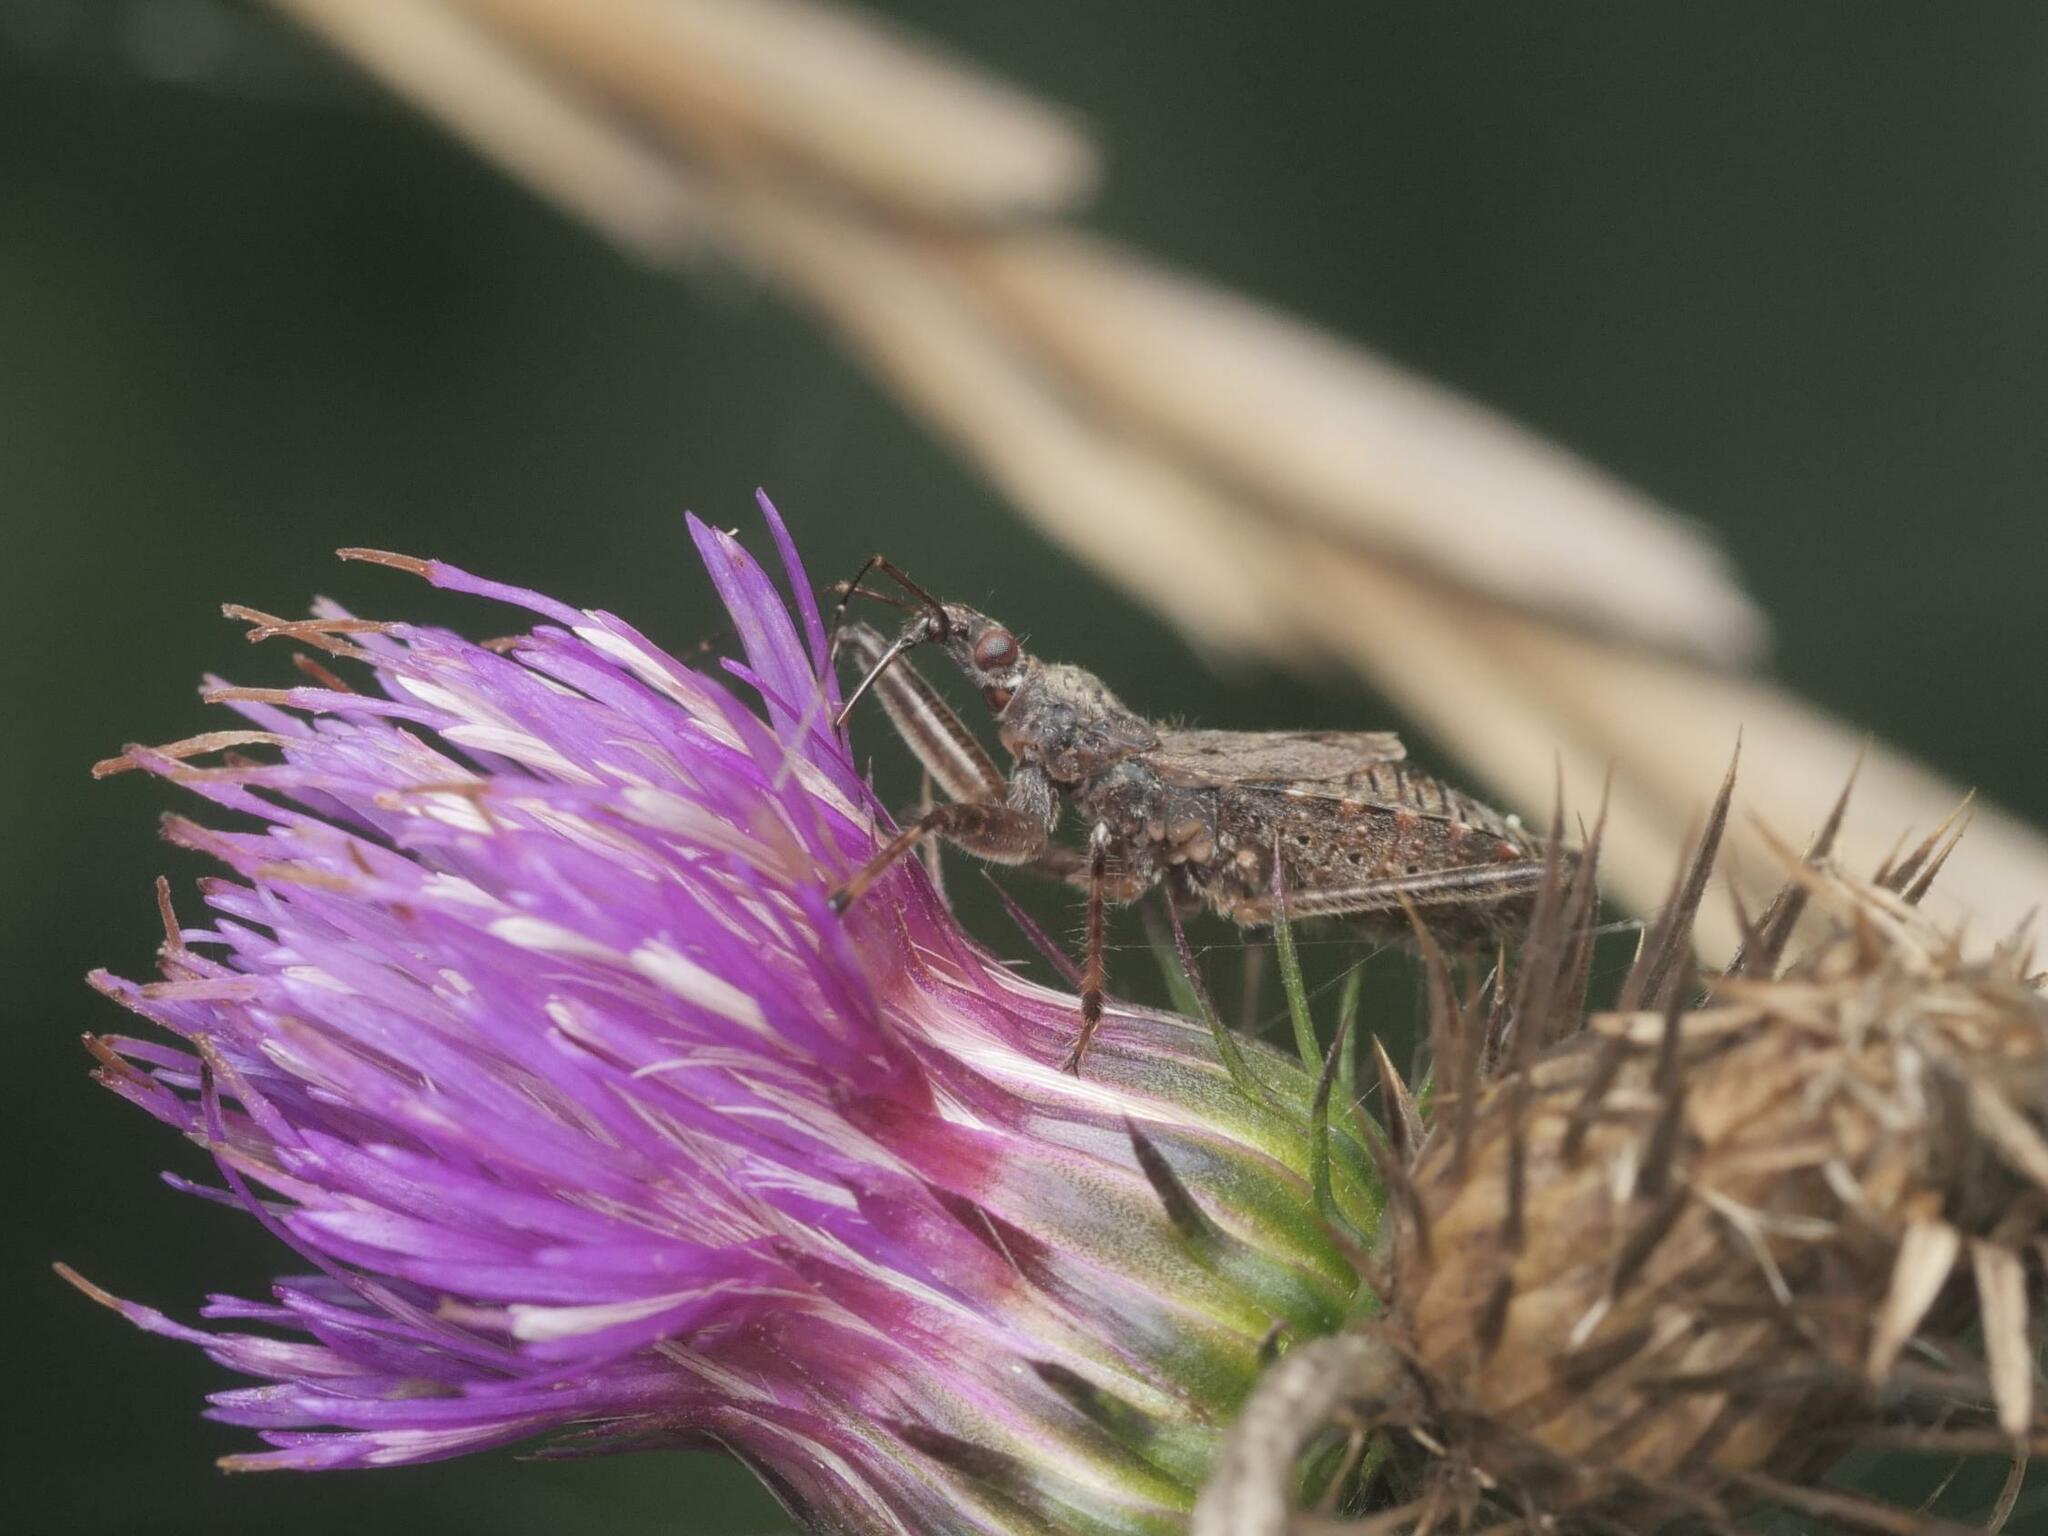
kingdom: Animalia
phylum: Arthropoda
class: Insecta
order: Hemiptera
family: Nabidae
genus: Himacerus
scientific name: Himacerus apterus
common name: Tree damsel bug
